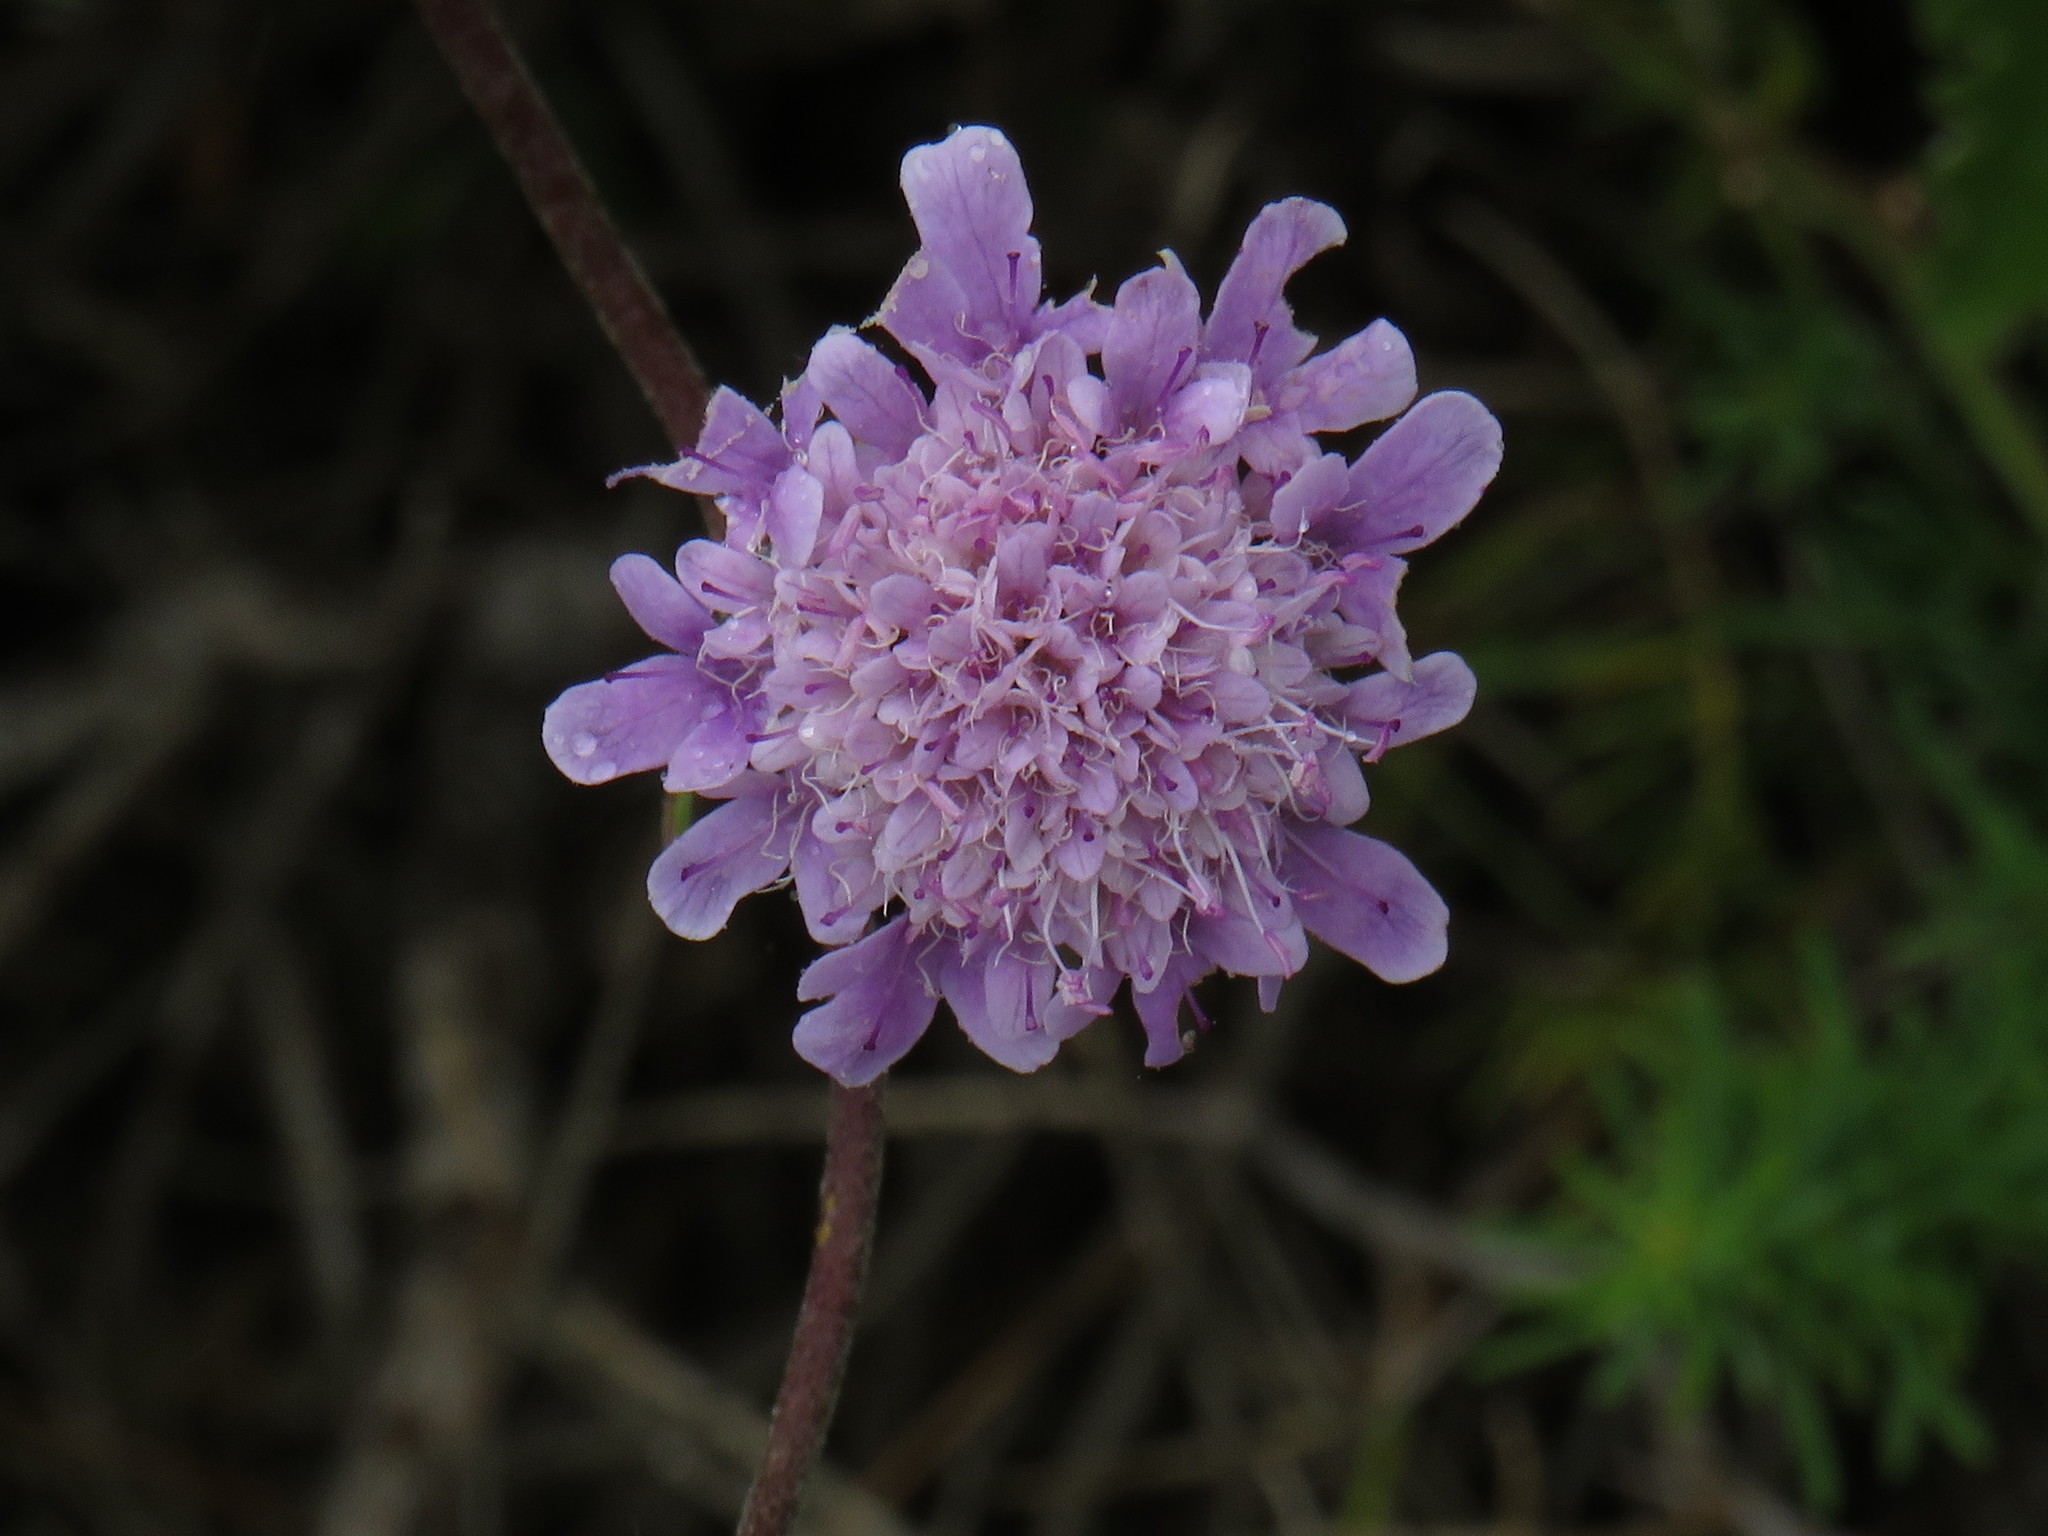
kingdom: Plantae
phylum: Tracheophyta
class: Magnoliopsida
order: Dipsacales
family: Caprifoliaceae
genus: Scabiosa
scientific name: Scabiosa africana
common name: Cape scabious
